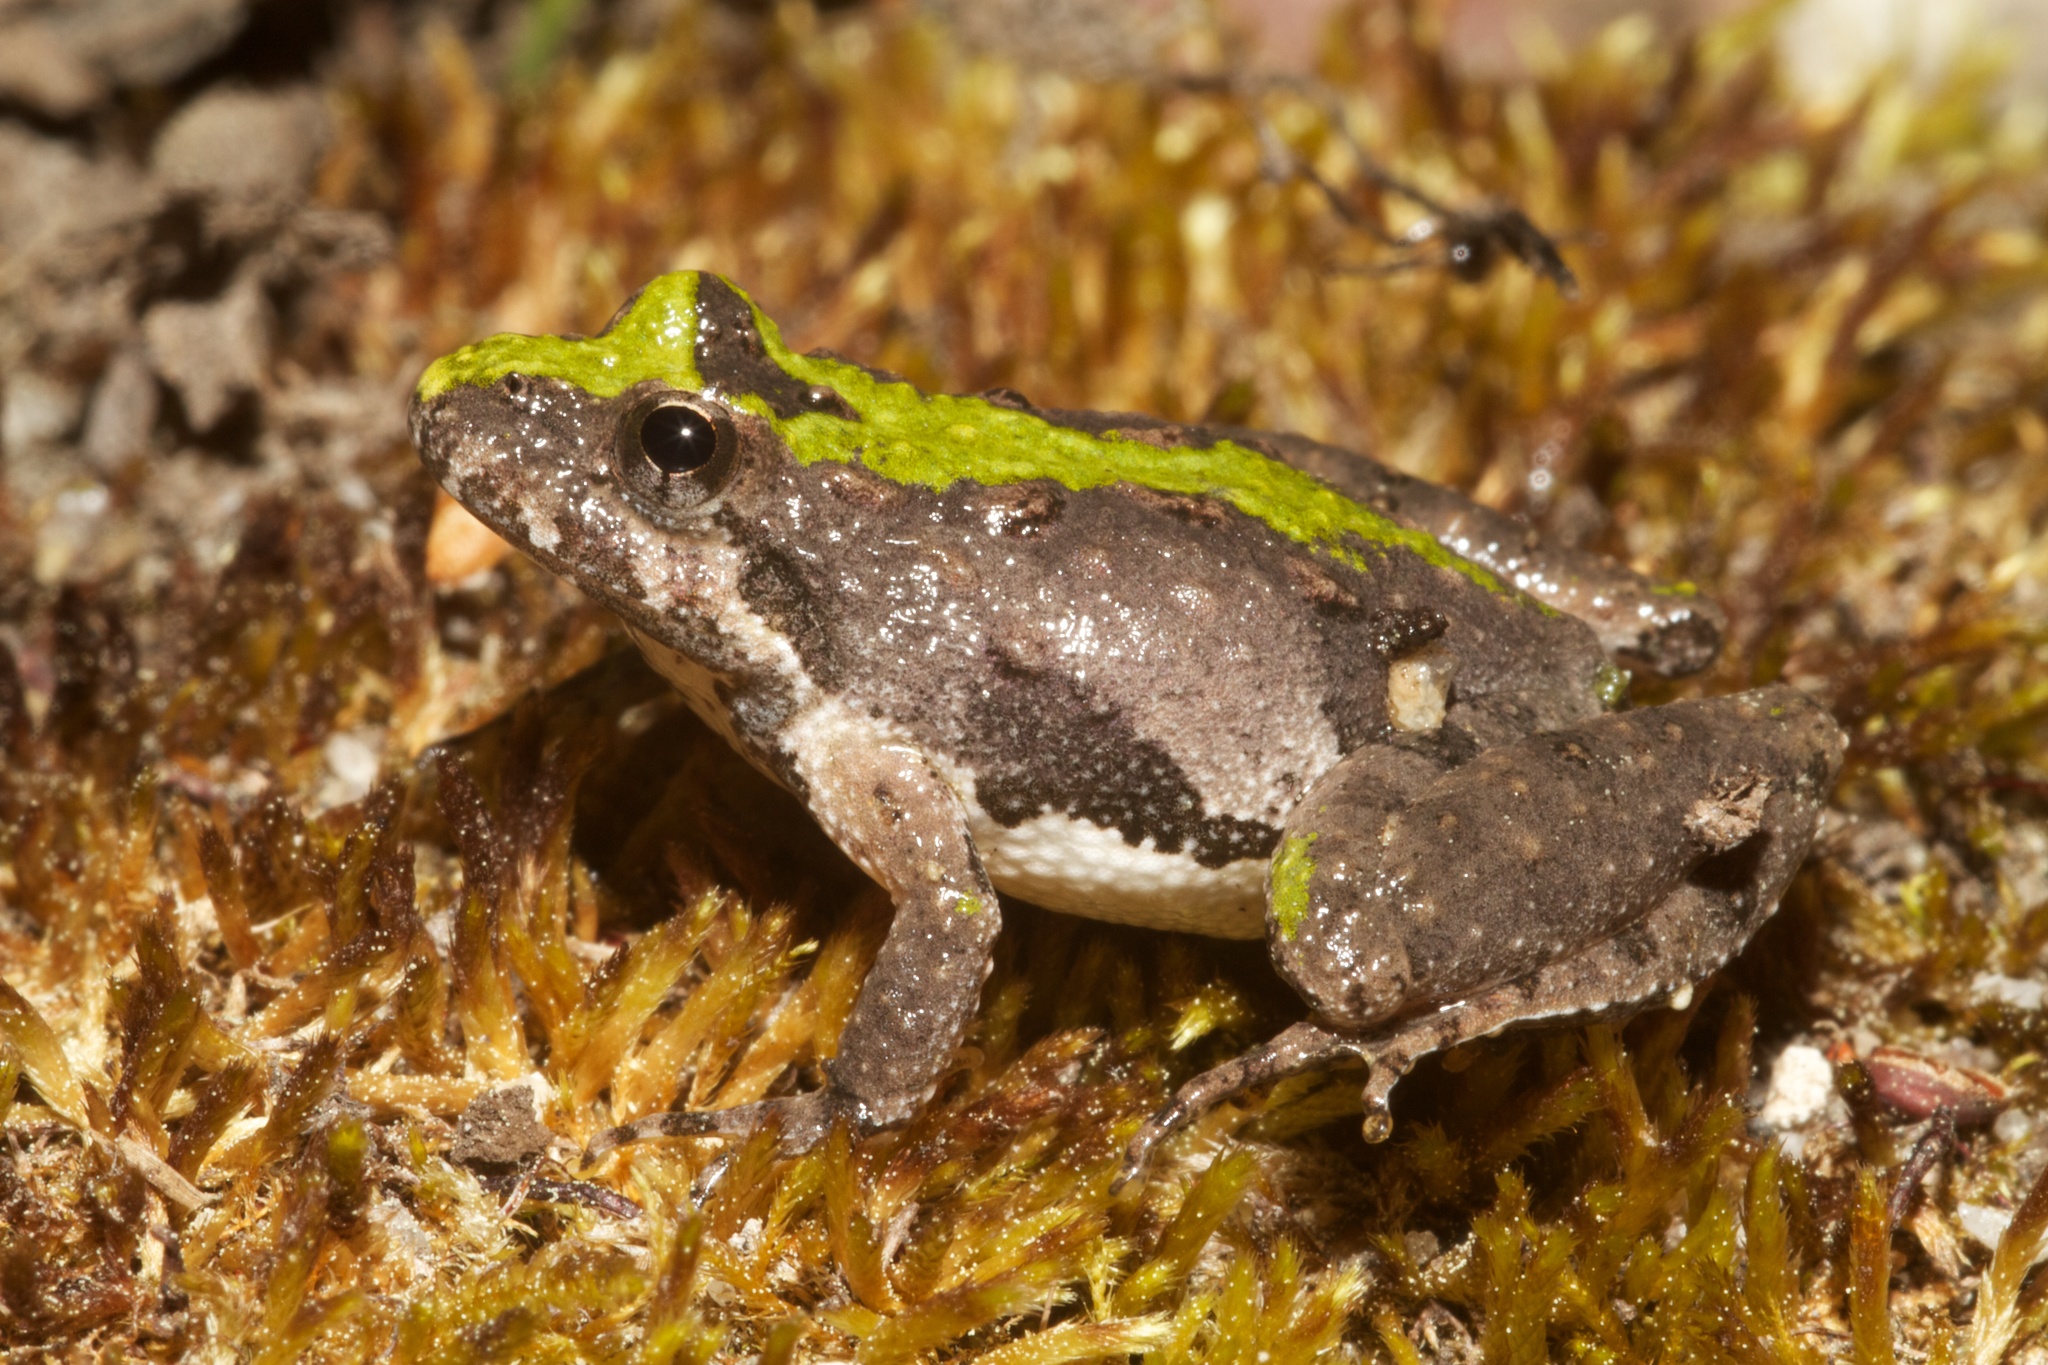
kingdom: Animalia
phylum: Chordata
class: Amphibia
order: Anura
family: Hylidae
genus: Acris
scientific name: Acris crepitans
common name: Northern cricket frog
